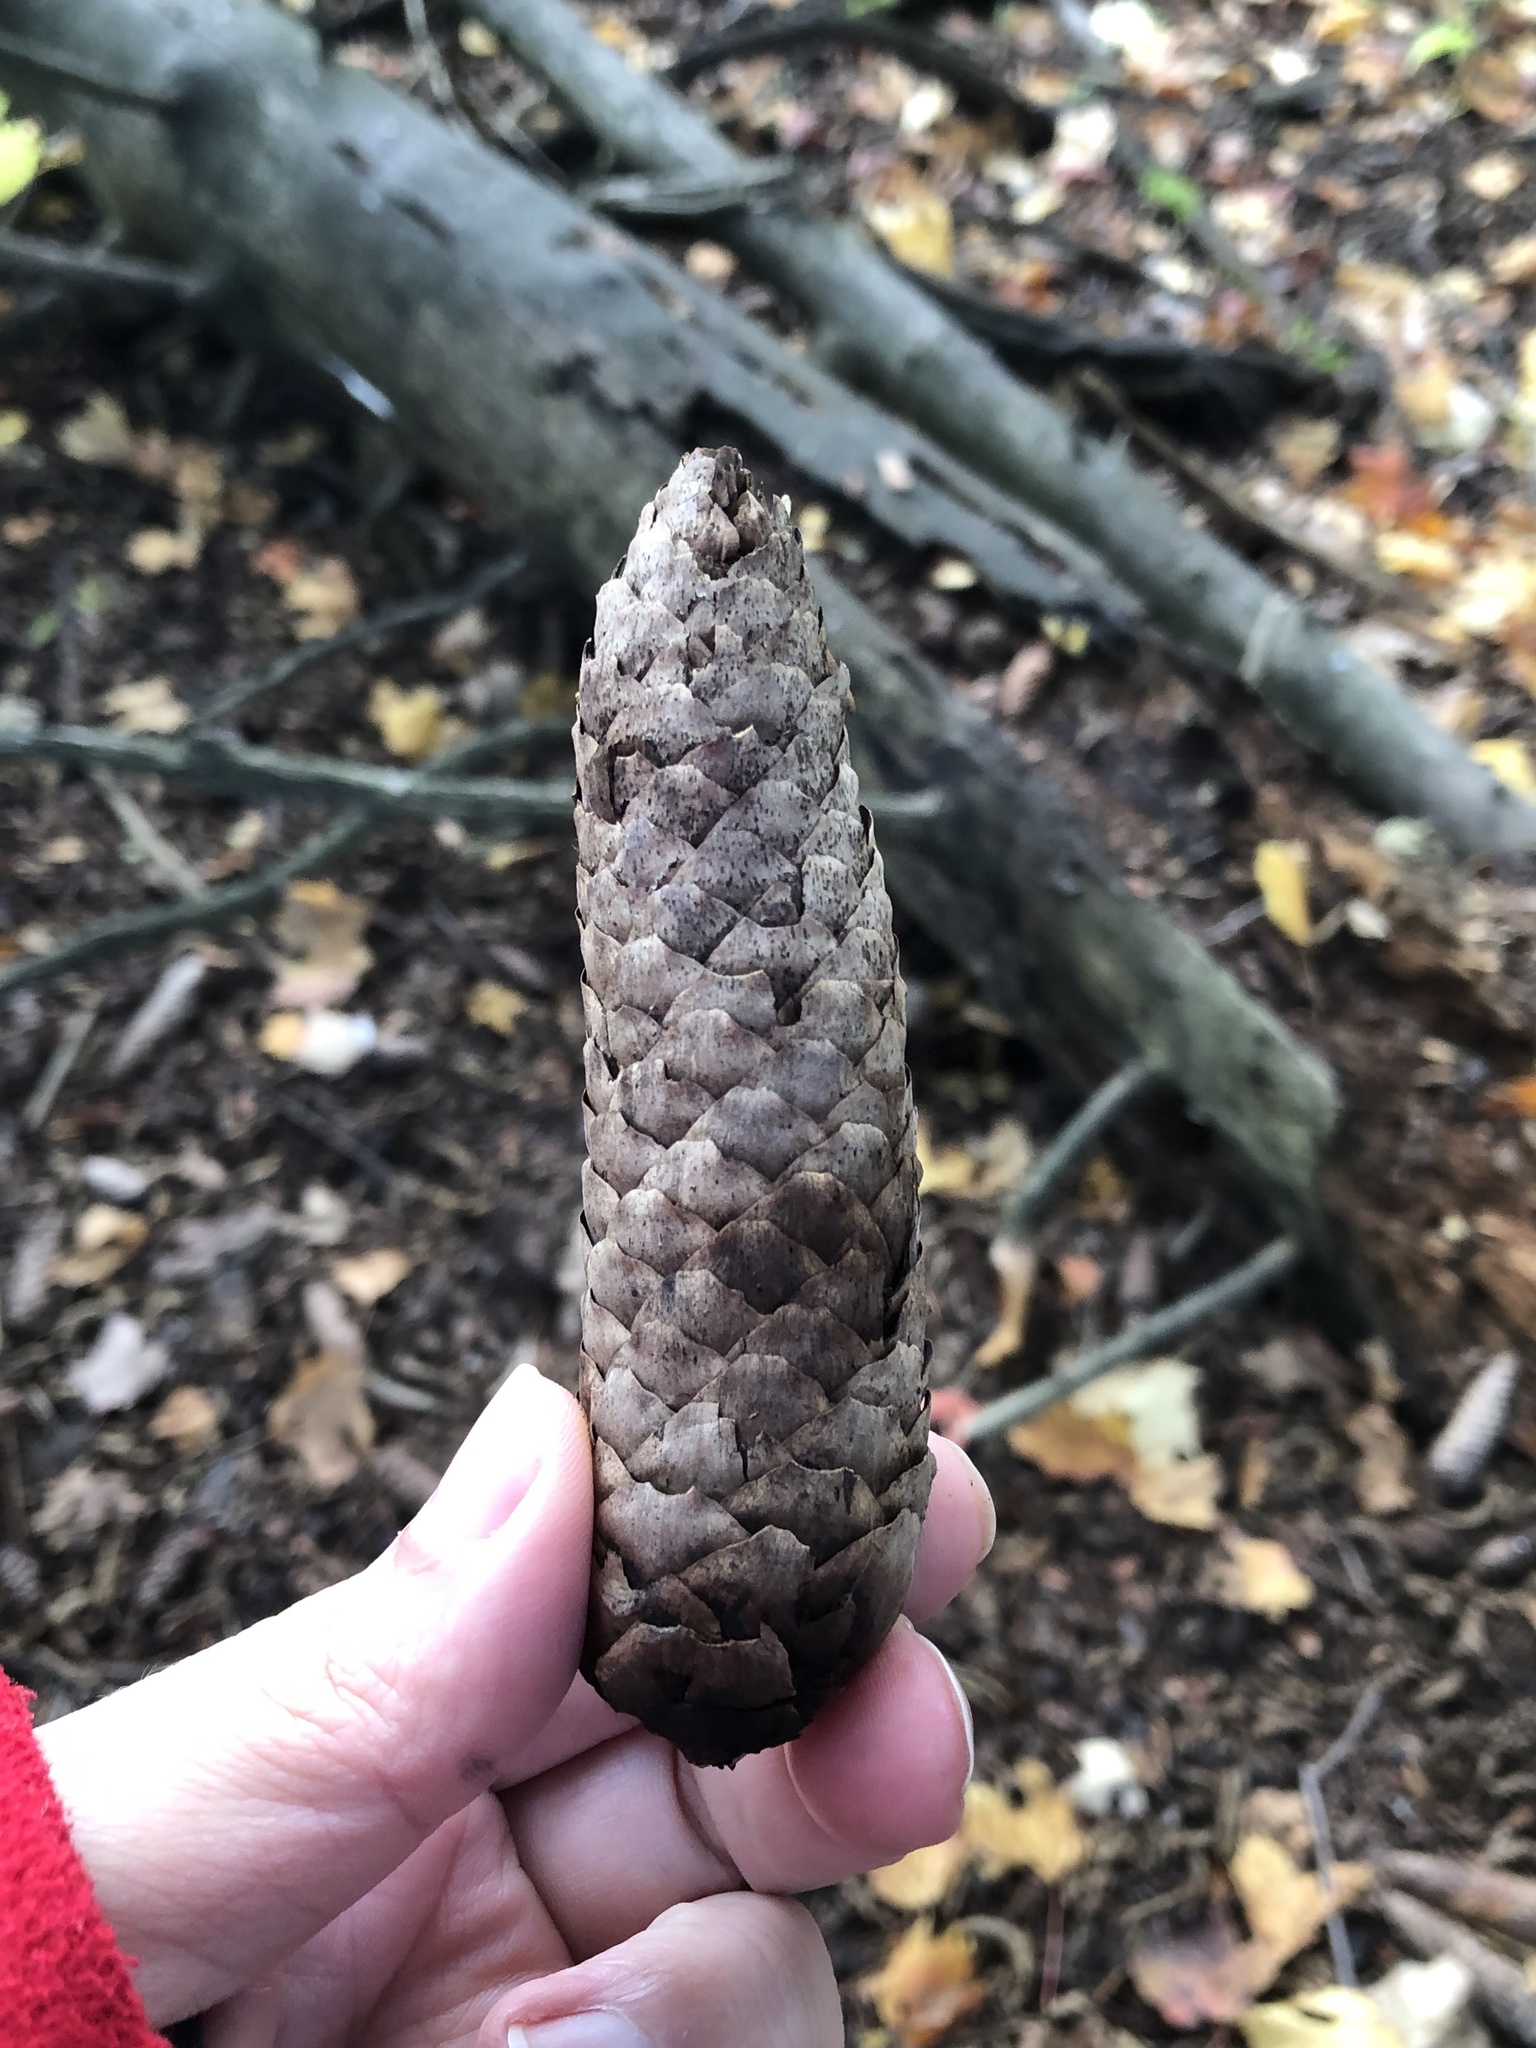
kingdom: Plantae
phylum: Tracheophyta
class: Pinopsida
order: Pinales
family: Pinaceae
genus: Picea
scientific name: Picea abies
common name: Norway spruce
